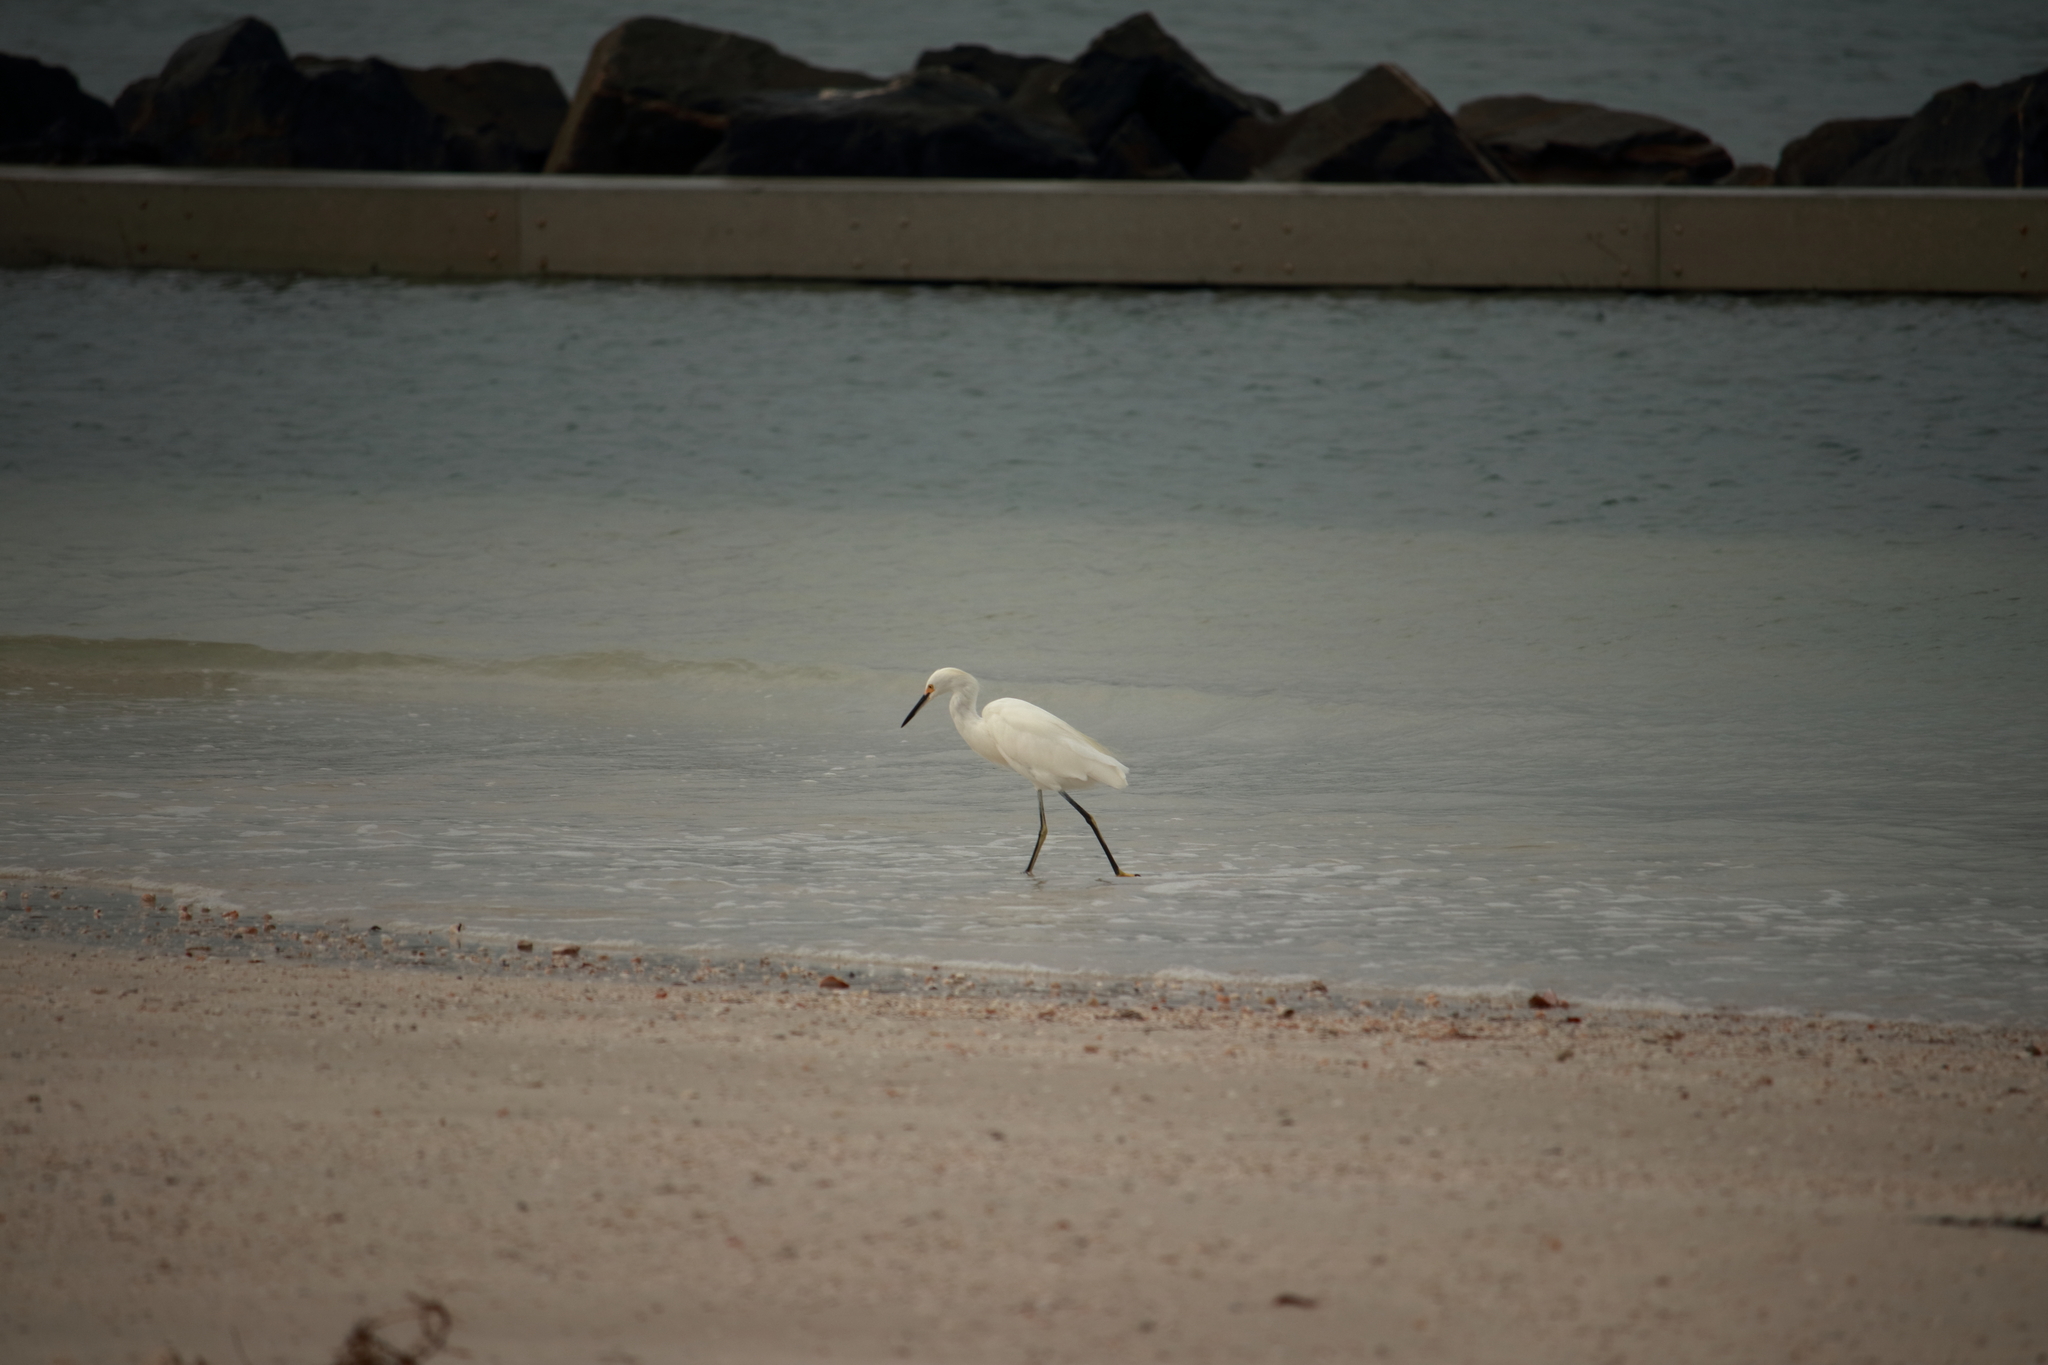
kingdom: Animalia
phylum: Chordata
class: Aves
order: Pelecaniformes
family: Ardeidae
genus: Egretta
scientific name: Egretta thula
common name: Snowy egret
